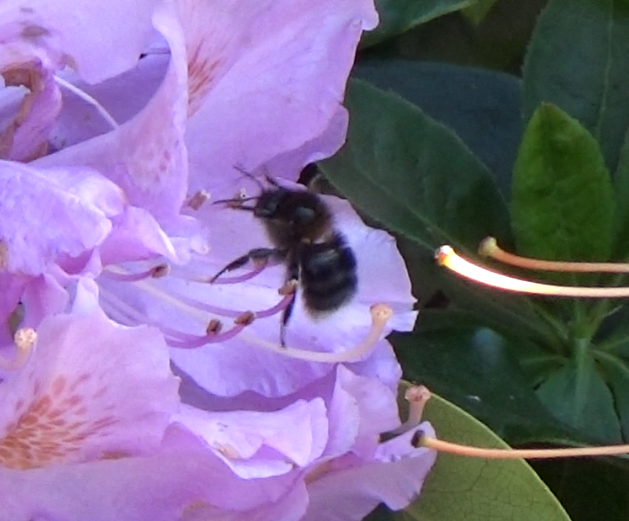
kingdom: Animalia
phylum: Arthropoda
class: Insecta
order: Hymenoptera
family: Apidae
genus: Bombus
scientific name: Bombus hypnorum
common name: New garden bumblebee
